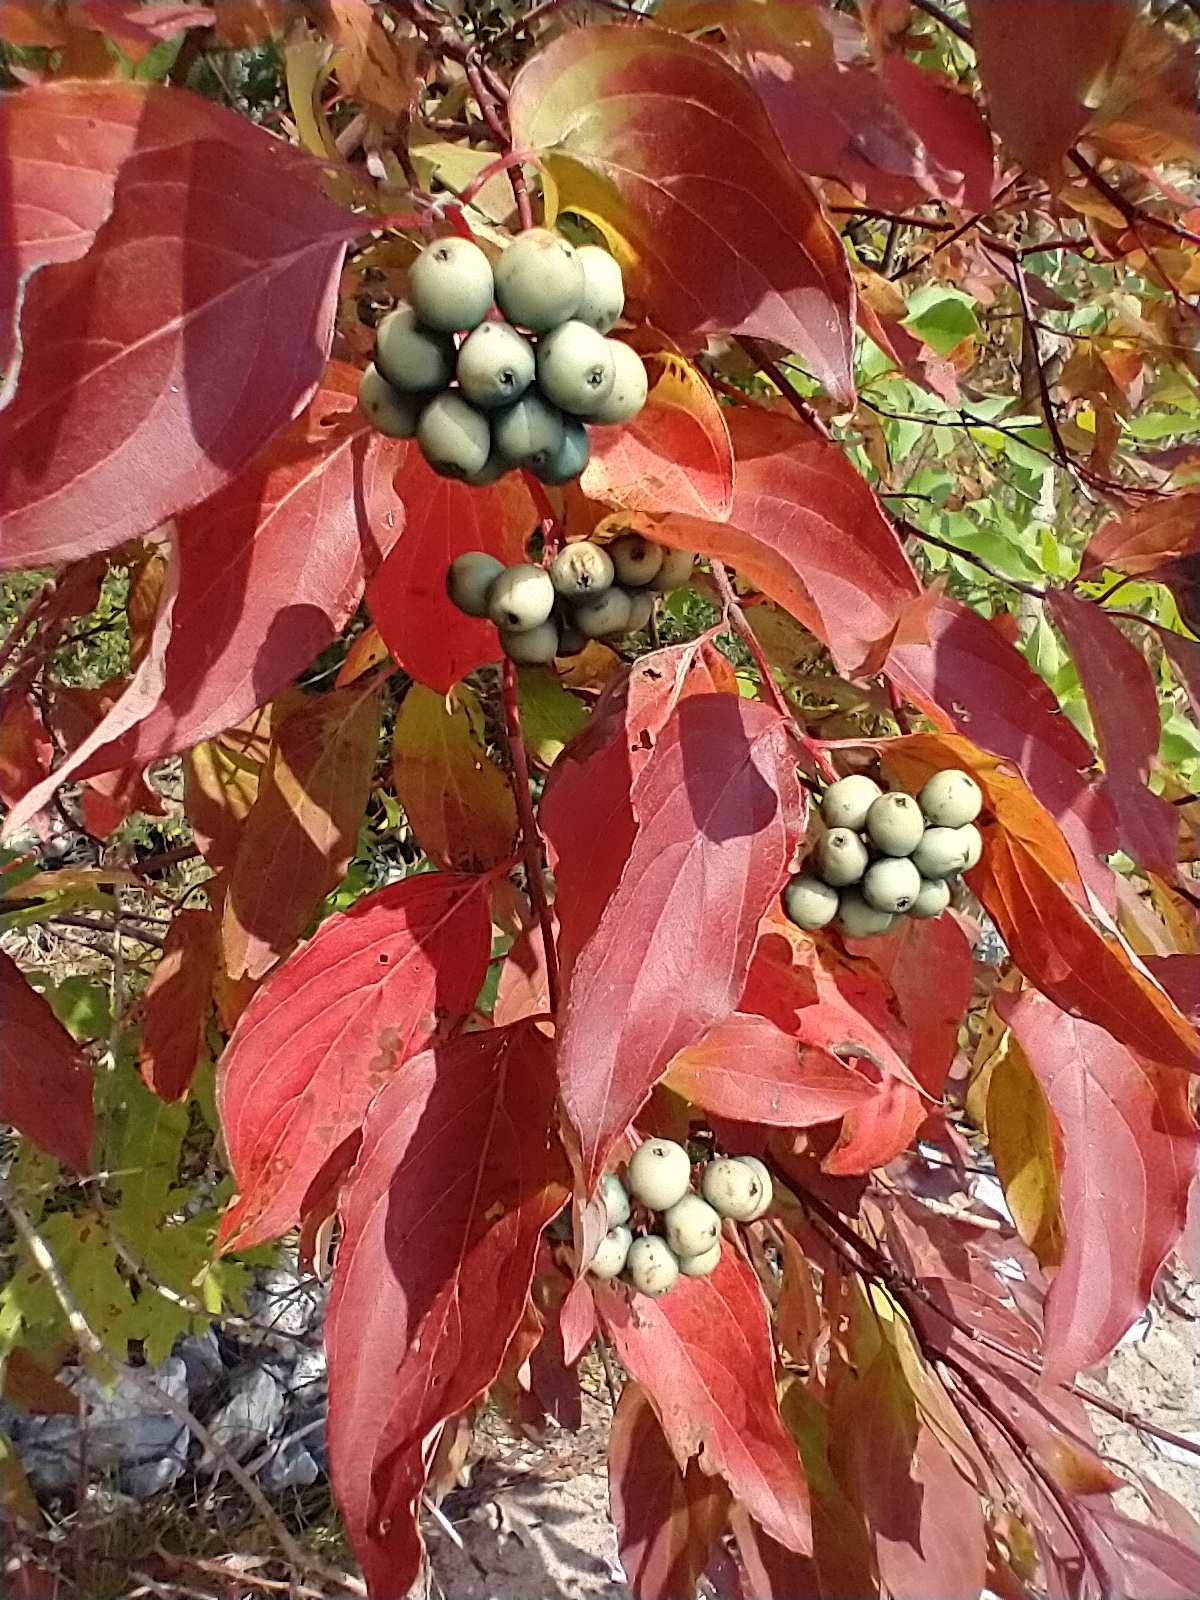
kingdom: Plantae
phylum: Tracheophyta
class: Magnoliopsida
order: Cornales
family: Cornaceae
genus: Cornus
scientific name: Cornus amomum
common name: Silky dogwood
